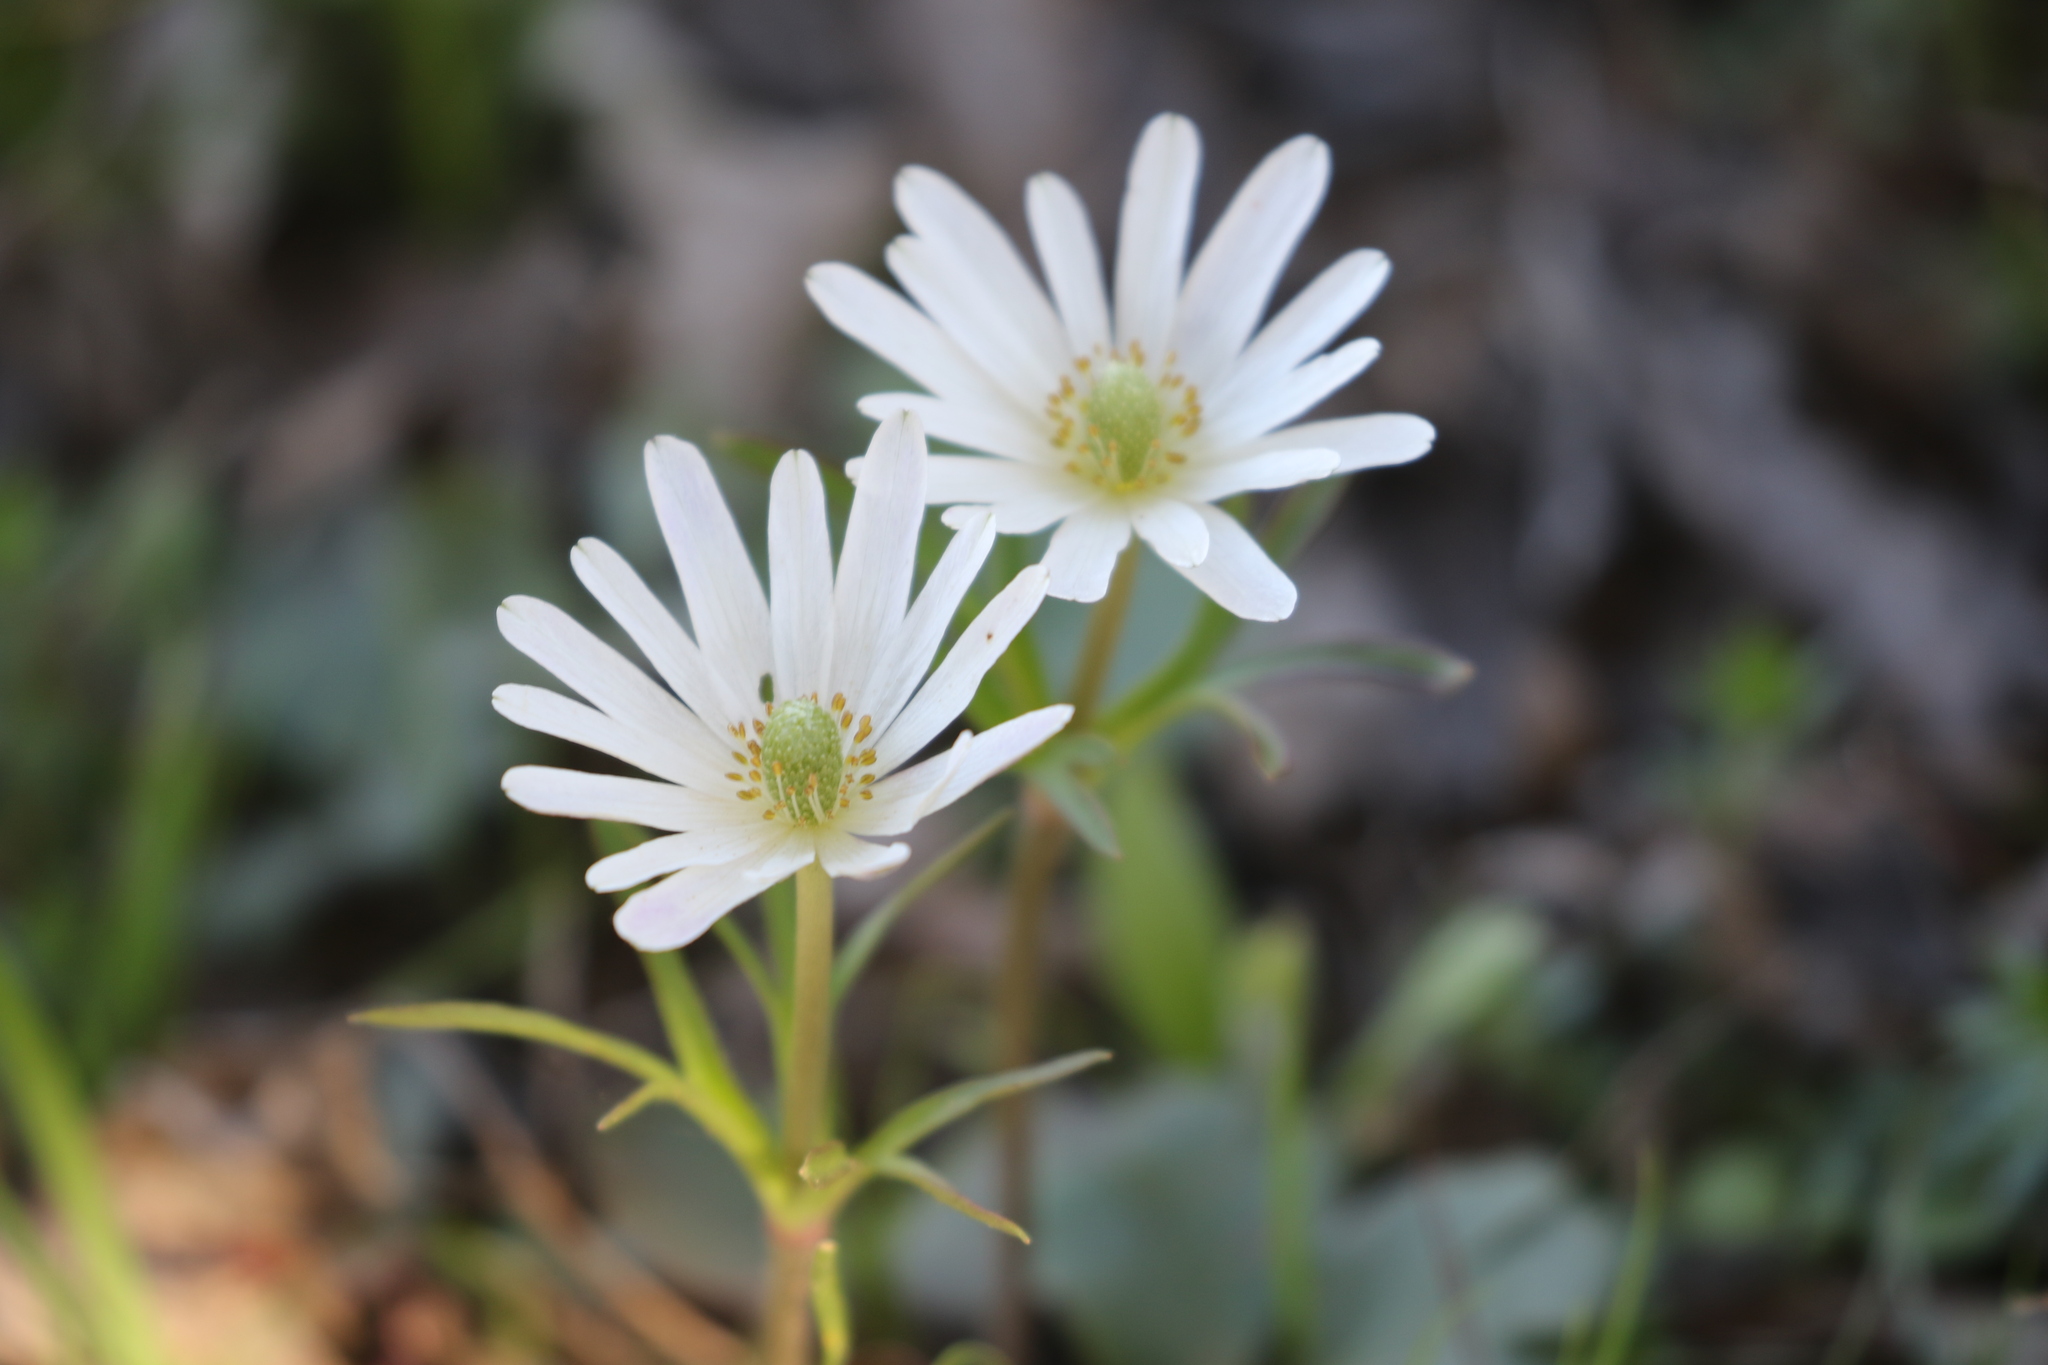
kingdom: Plantae
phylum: Tracheophyta
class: Magnoliopsida
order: Ranunculales
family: Ranunculaceae
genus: Anemone
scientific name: Anemone berlandieri
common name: Ten-petal anemone
